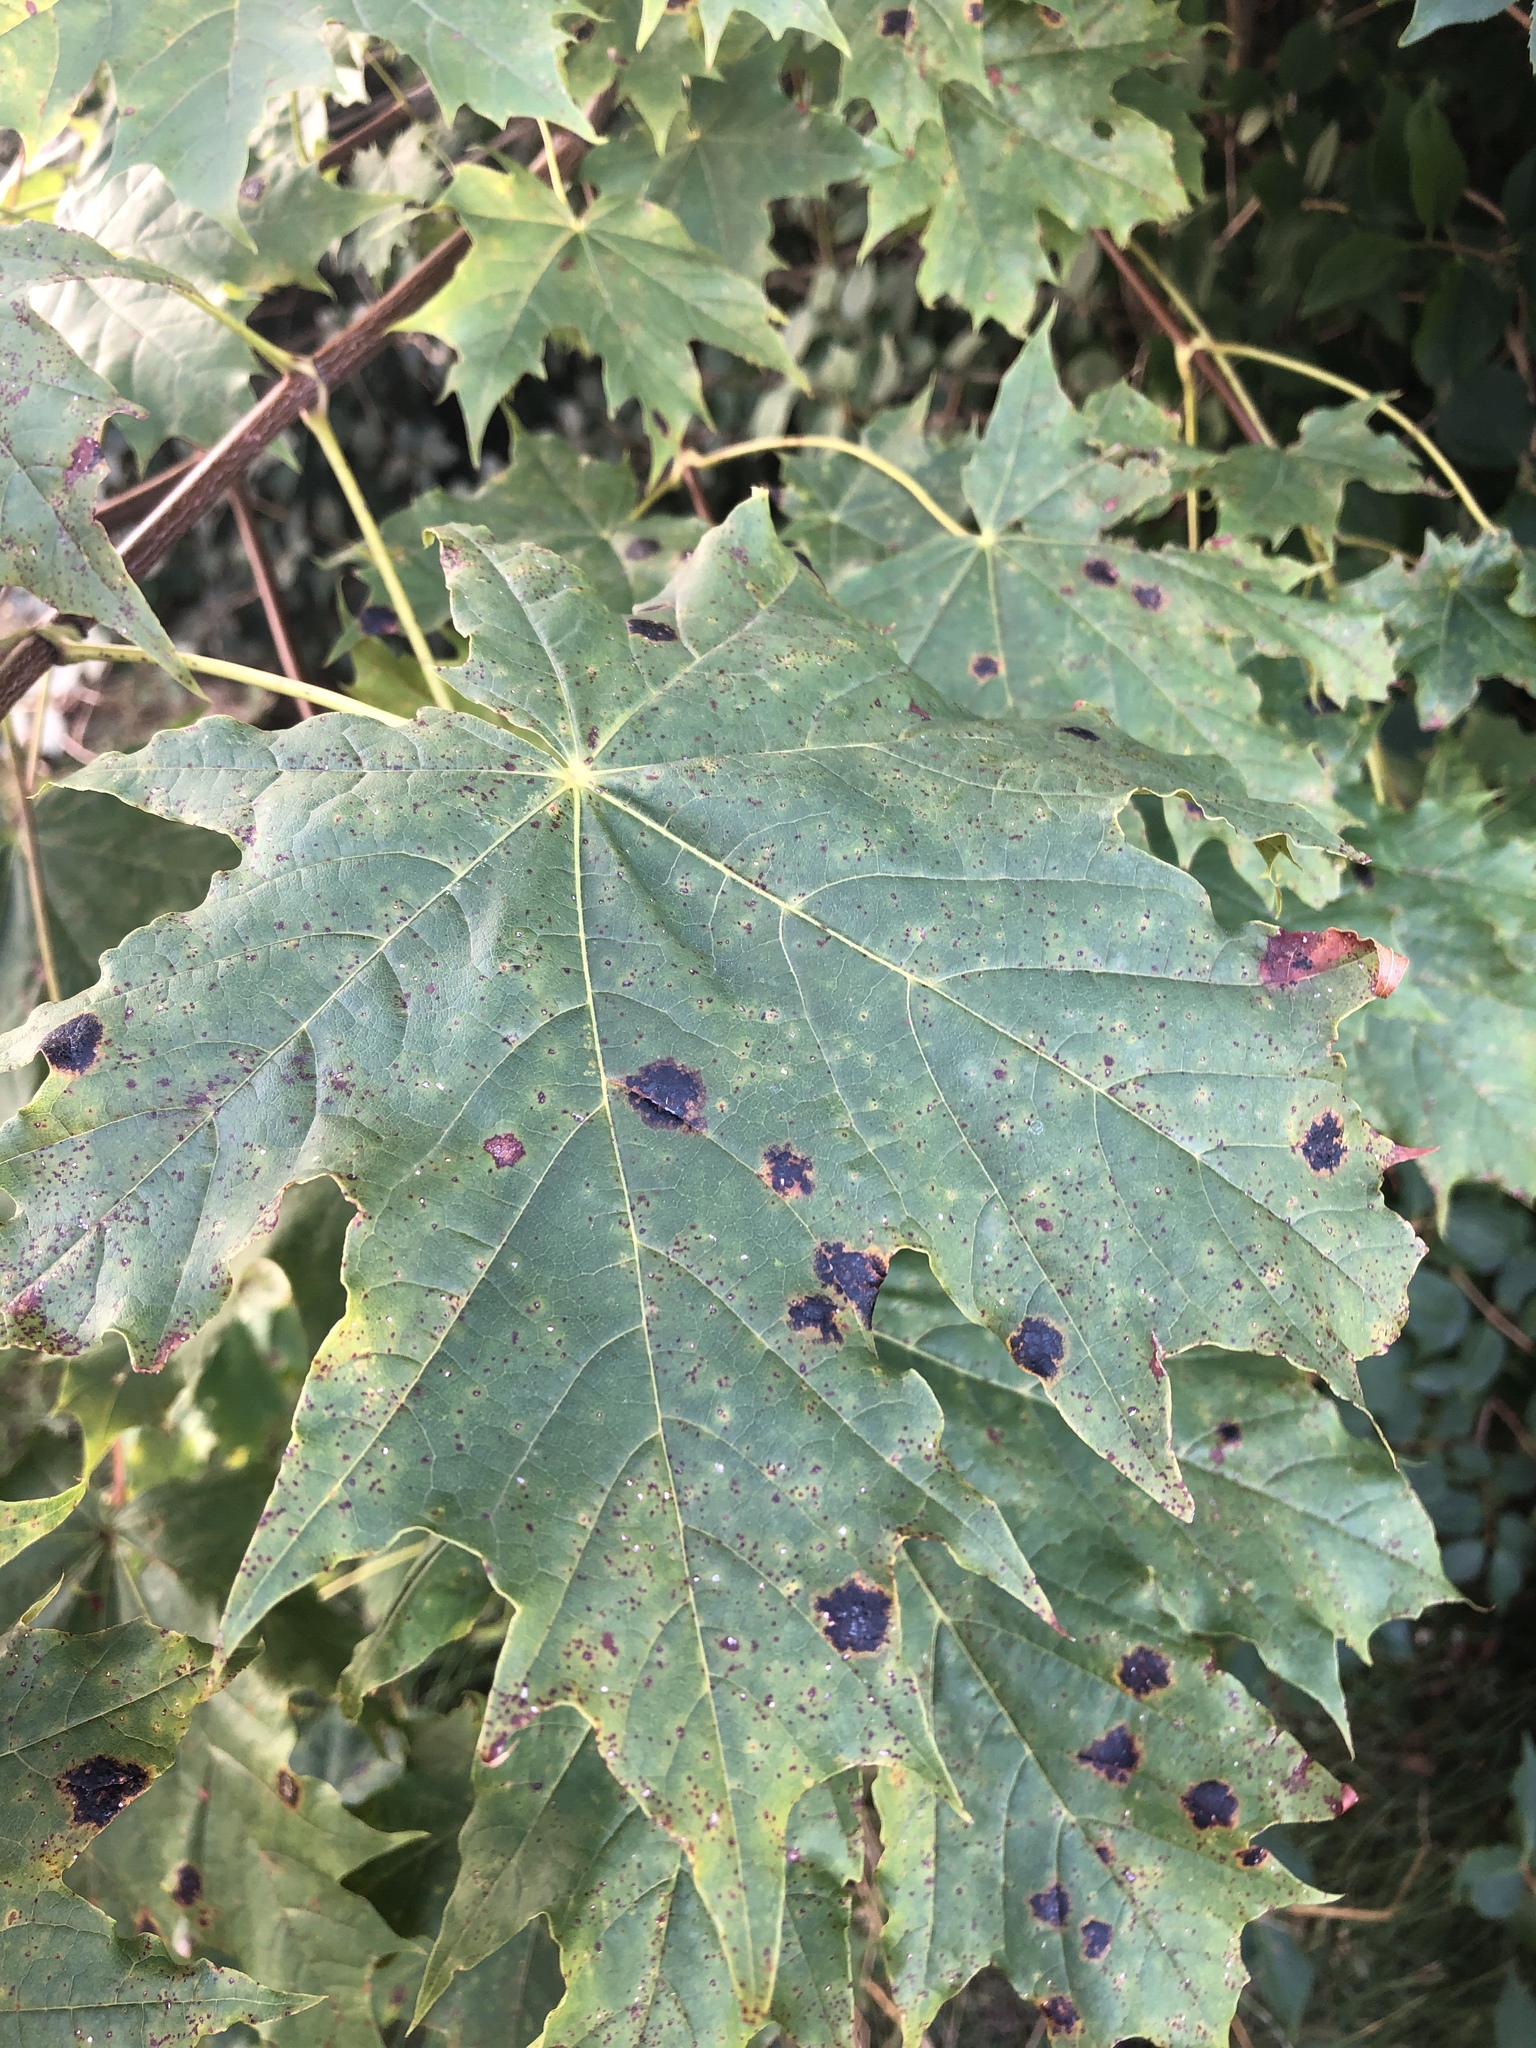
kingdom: Plantae
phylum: Tracheophyta
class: Magnoliopsida
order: Sapindales
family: Sapindaceae
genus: Acer
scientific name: Acer platanoides
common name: Norway maple
